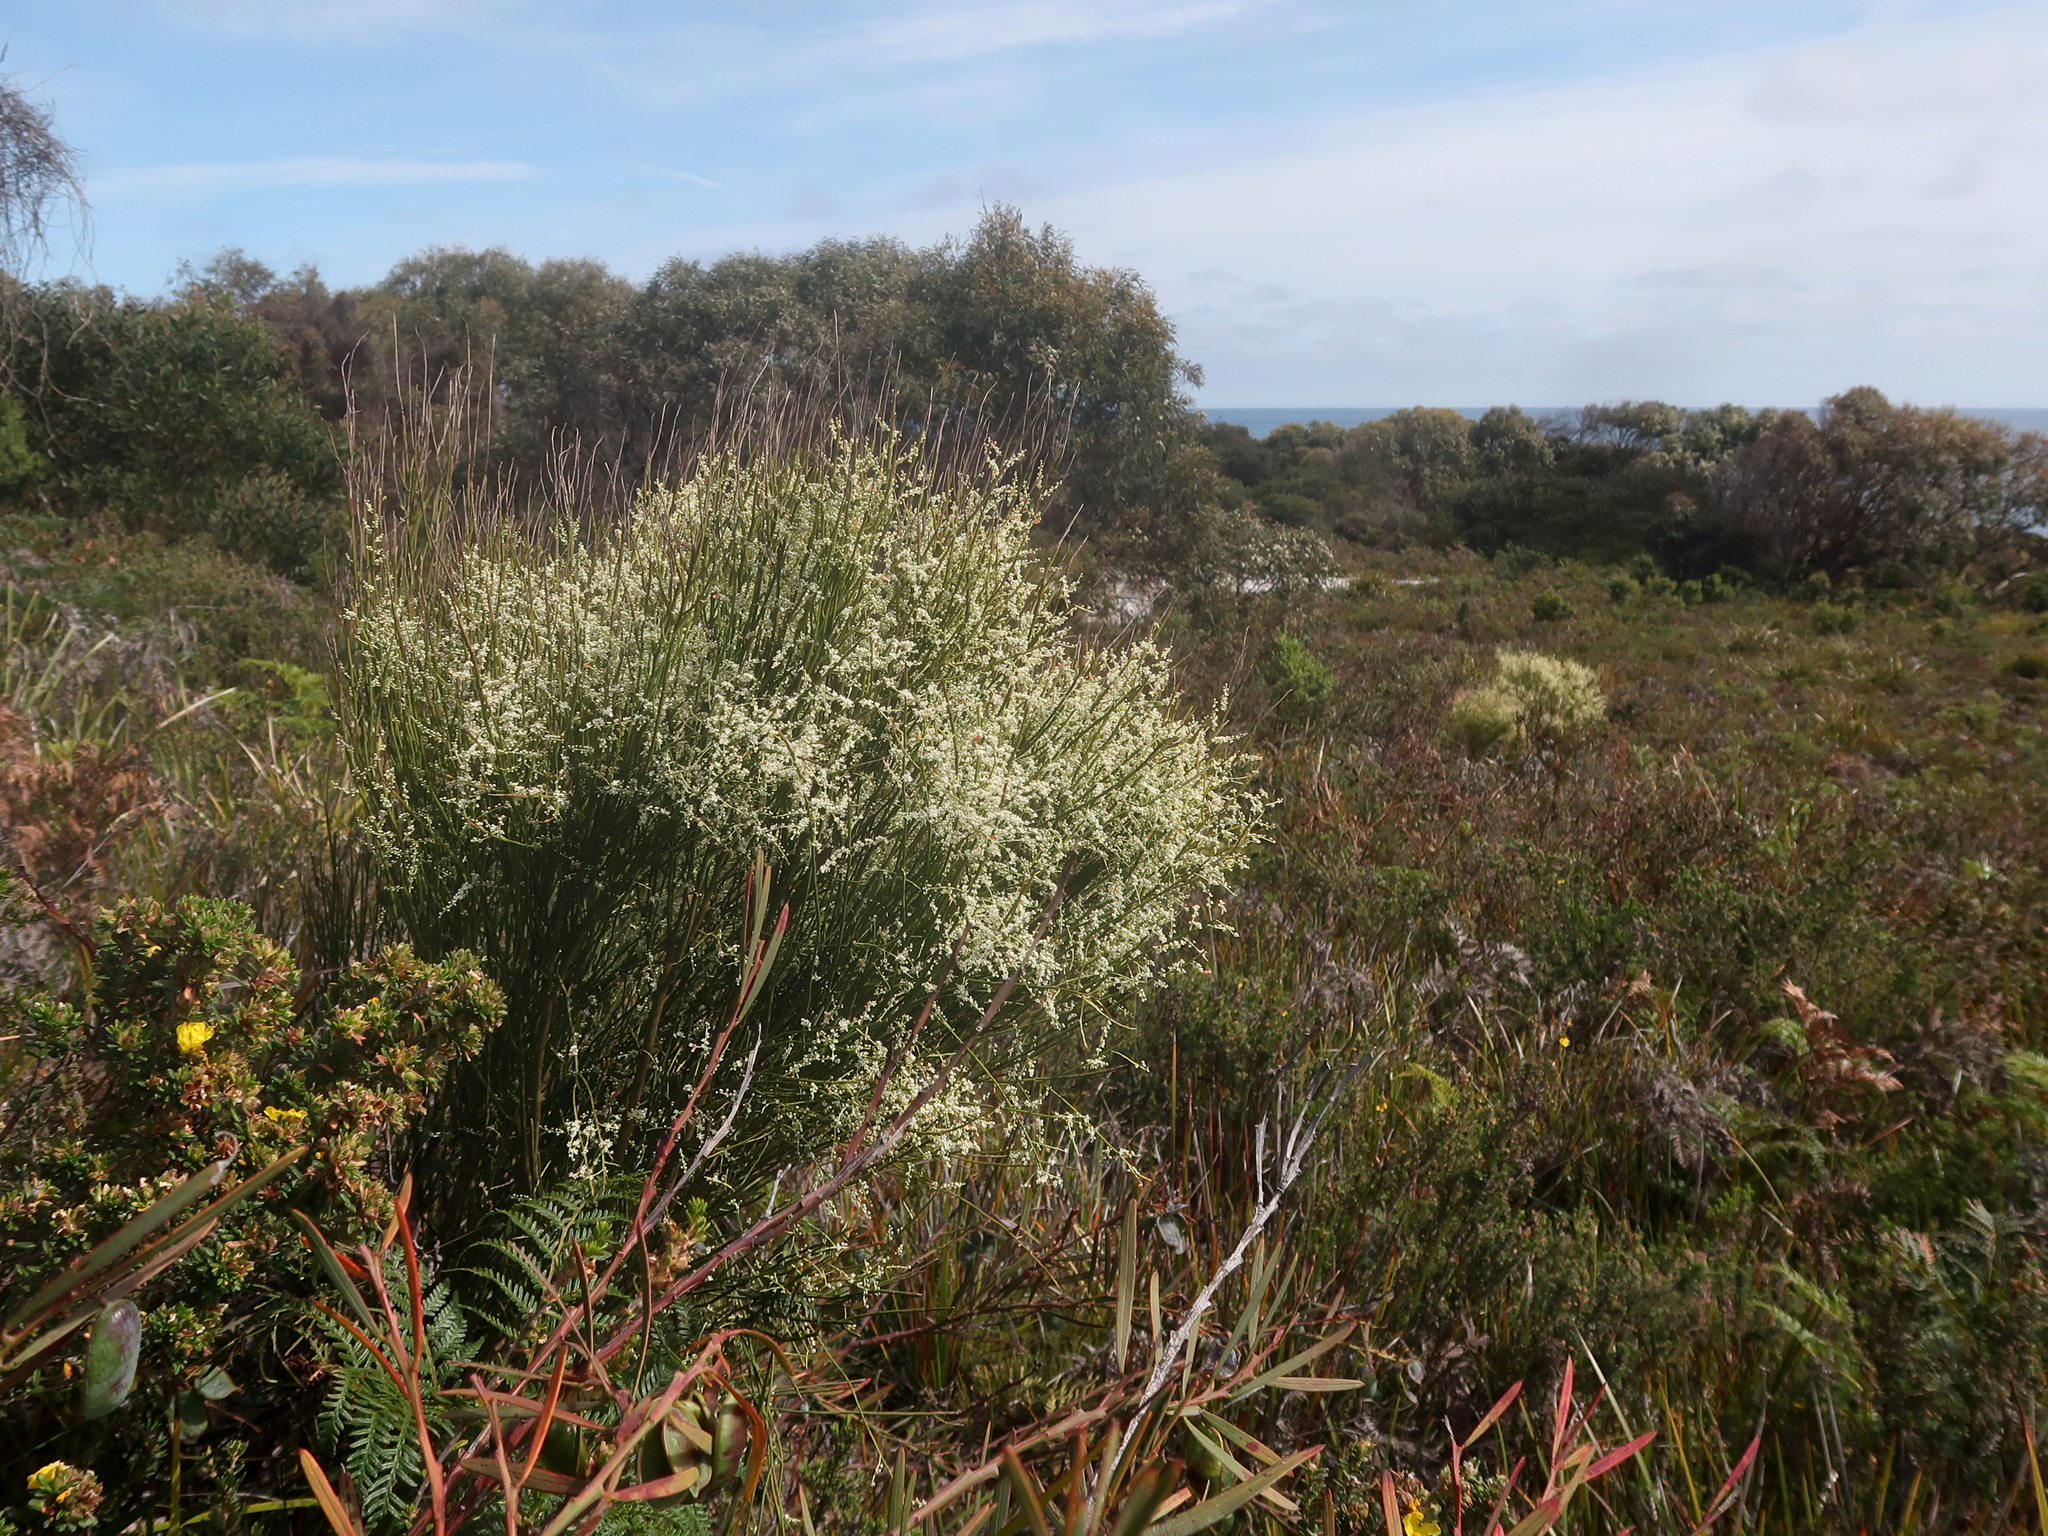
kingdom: Plantae
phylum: Tracheophyta
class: Magnoliopsida
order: Santalales
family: Amphorogynaceae
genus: Leptomeria
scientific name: Leptomeria drupacea
